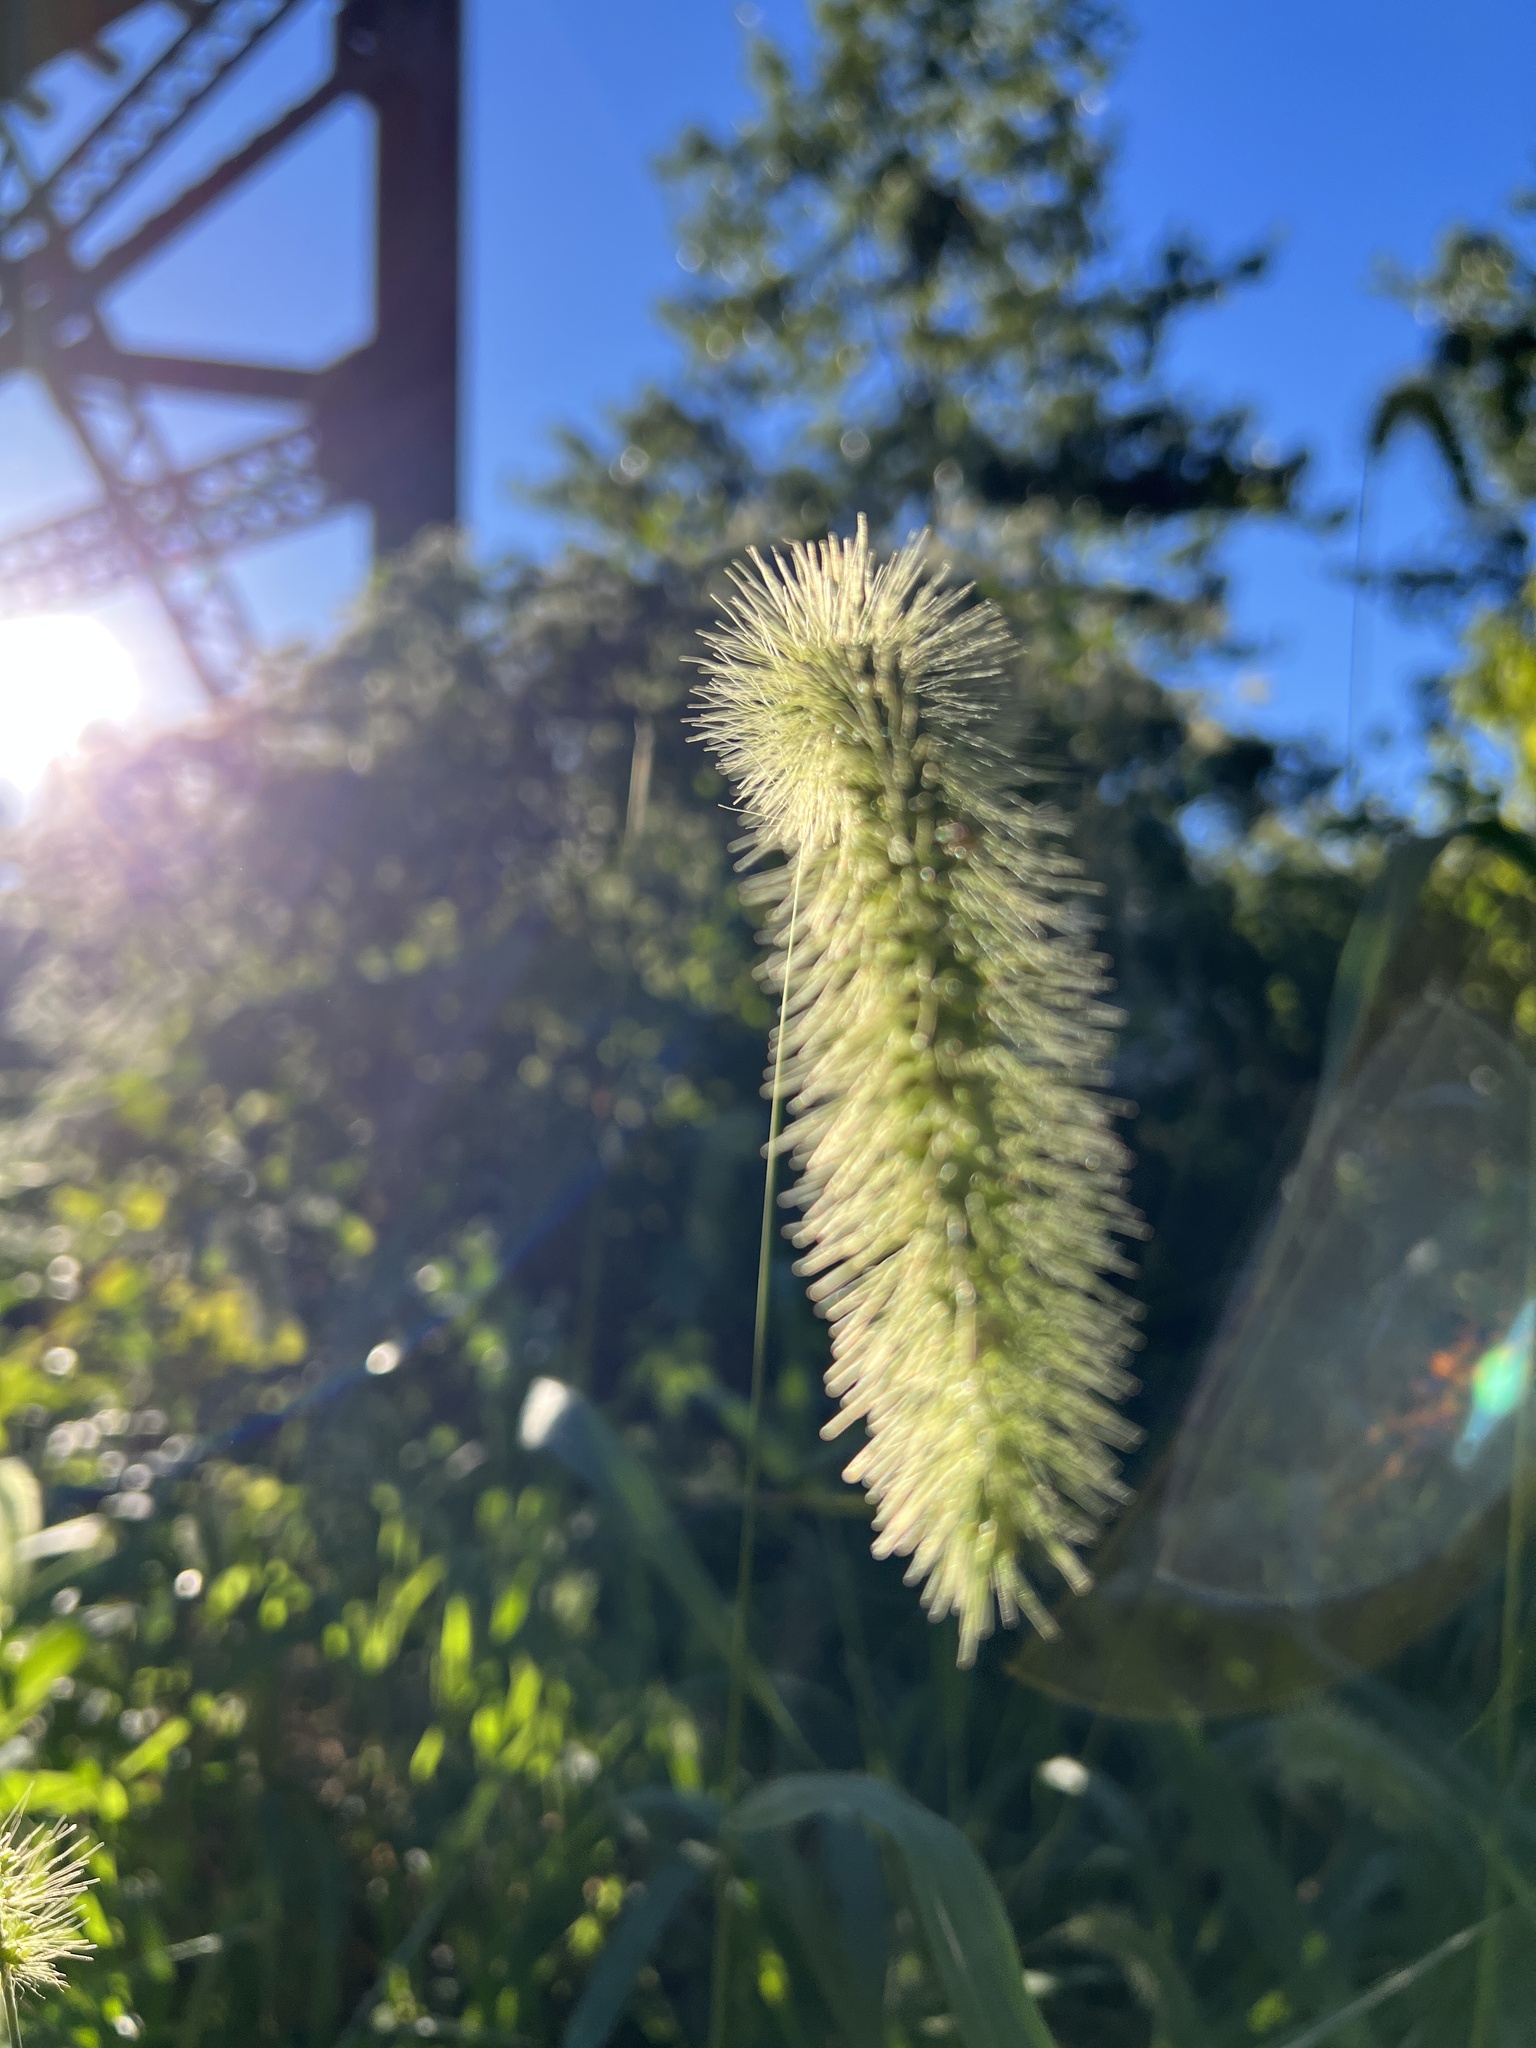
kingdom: Plantae
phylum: Tracheophyta
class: Liliopsida
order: Poales
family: Poaceae
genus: Setaria
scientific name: Setaria faberi
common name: Nodding bristle-grass
